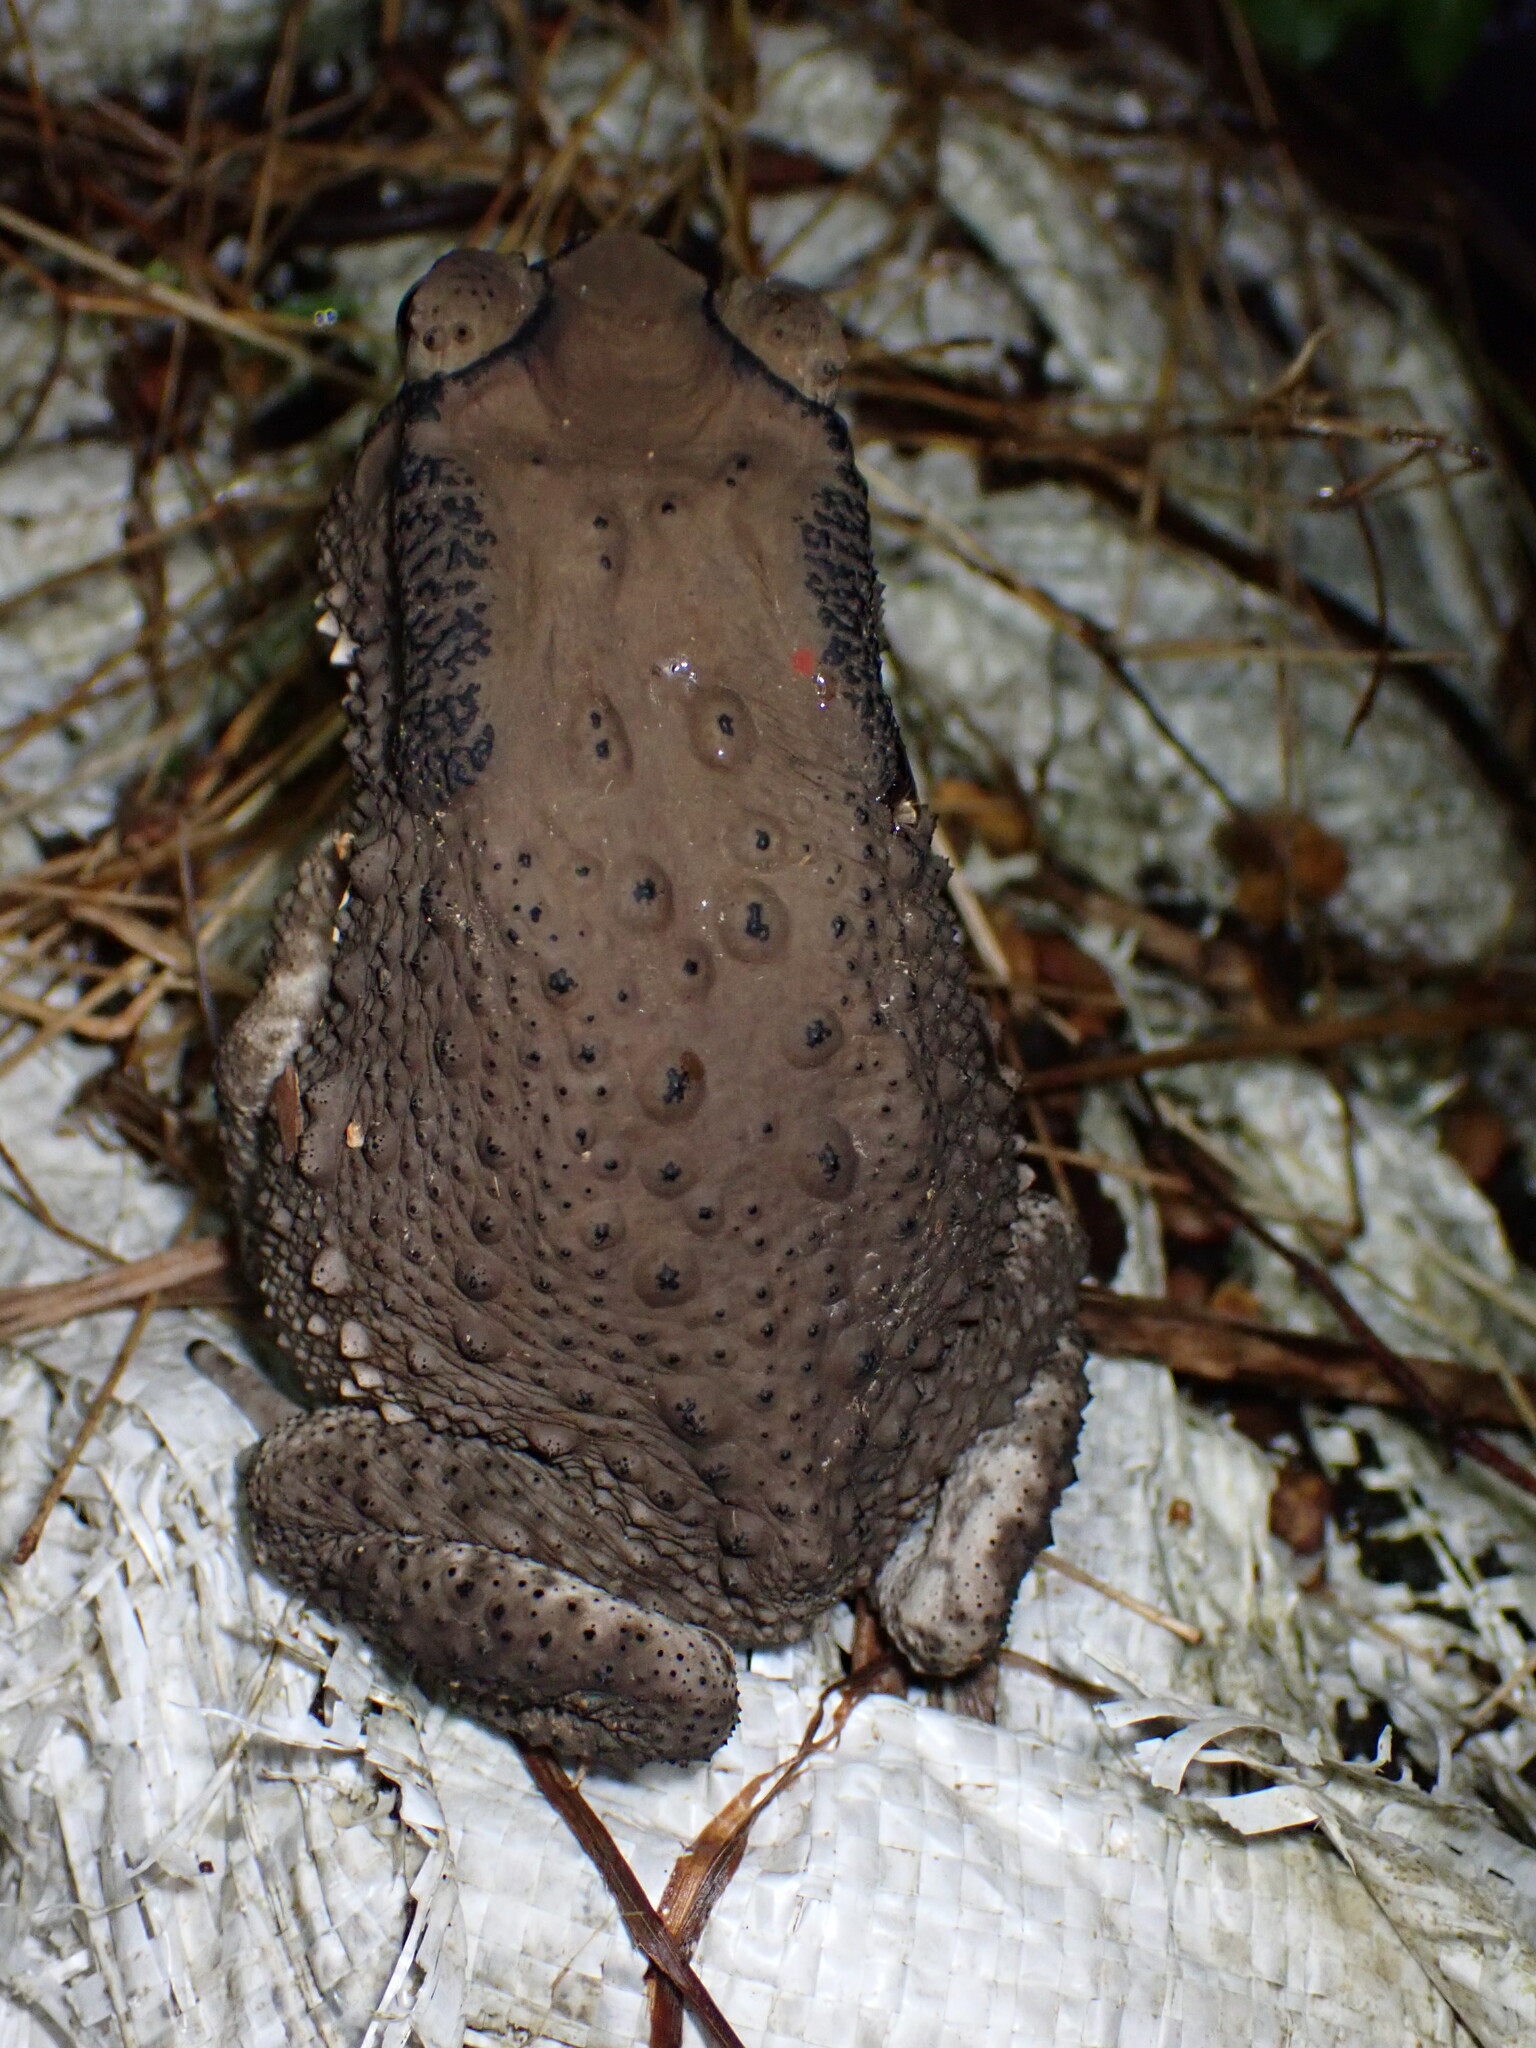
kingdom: Animalia
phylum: Chordata
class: Amphibia
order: Anura
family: Bufonidae
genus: Duttaphrynus
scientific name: Duttaphrynus melanostictus
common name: Common sunda toad
